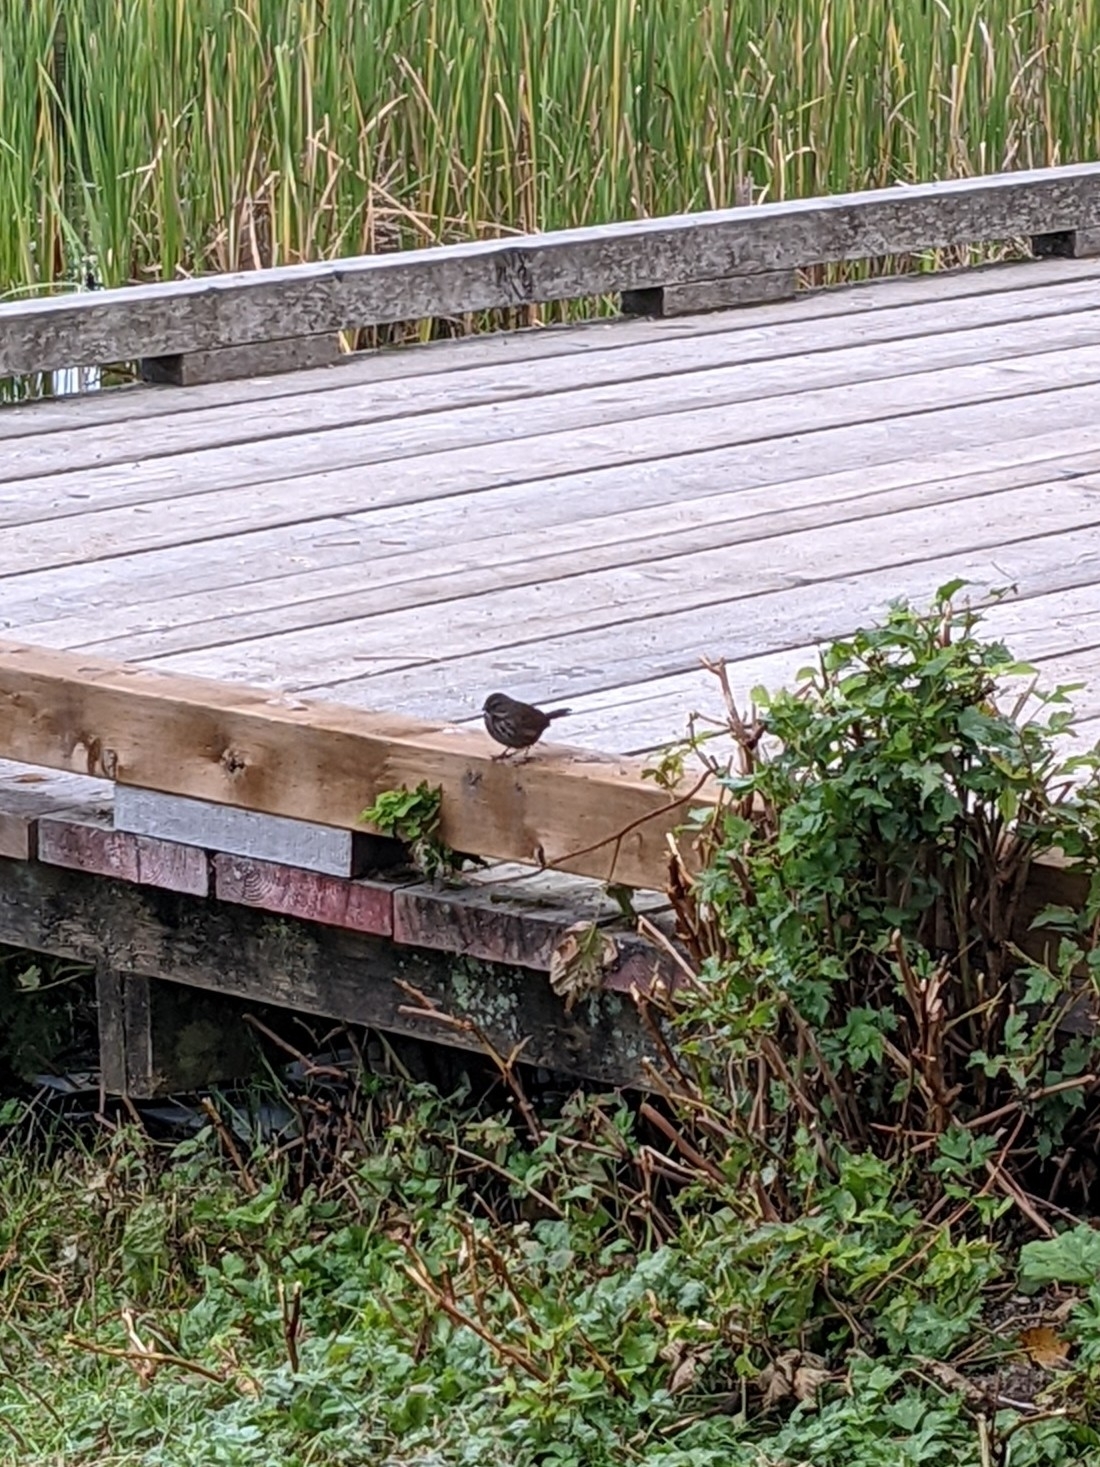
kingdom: Animalia
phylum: Chordata
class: Aves
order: Passeriformes
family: Passerellidae
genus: Melospiza
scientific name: Melospiza melodia
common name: Song sparrow
